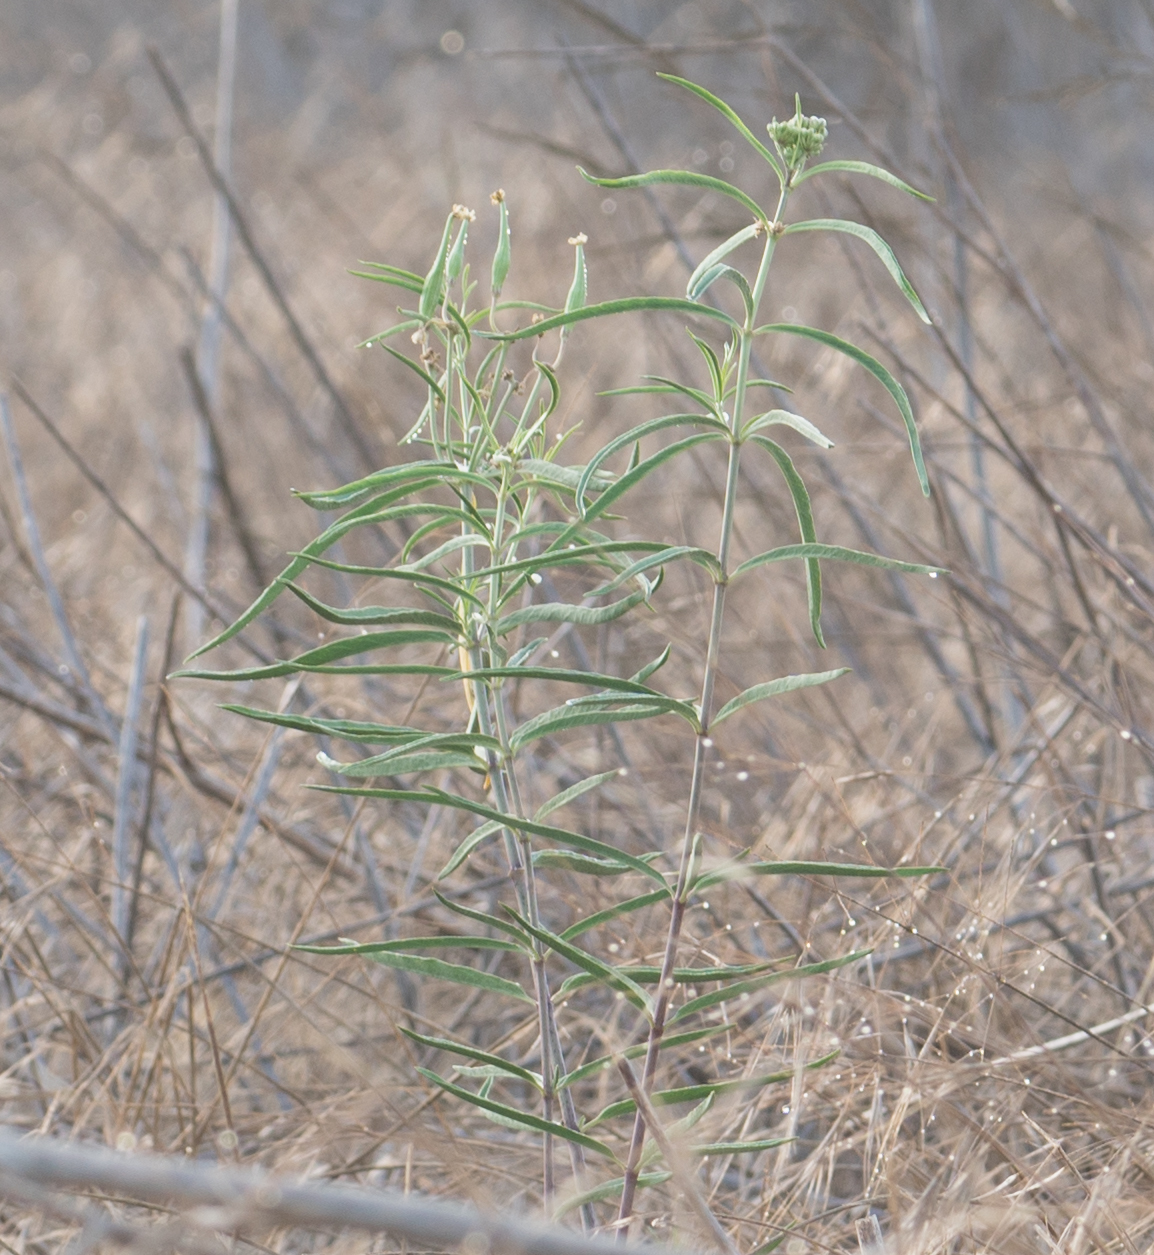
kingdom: Plantae
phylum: Tracheophyta
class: Magnoliopsida
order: Gentianales
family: Apocynaceae
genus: Asclepias
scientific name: Asclepias fascicularis
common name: Mexican milkweed
